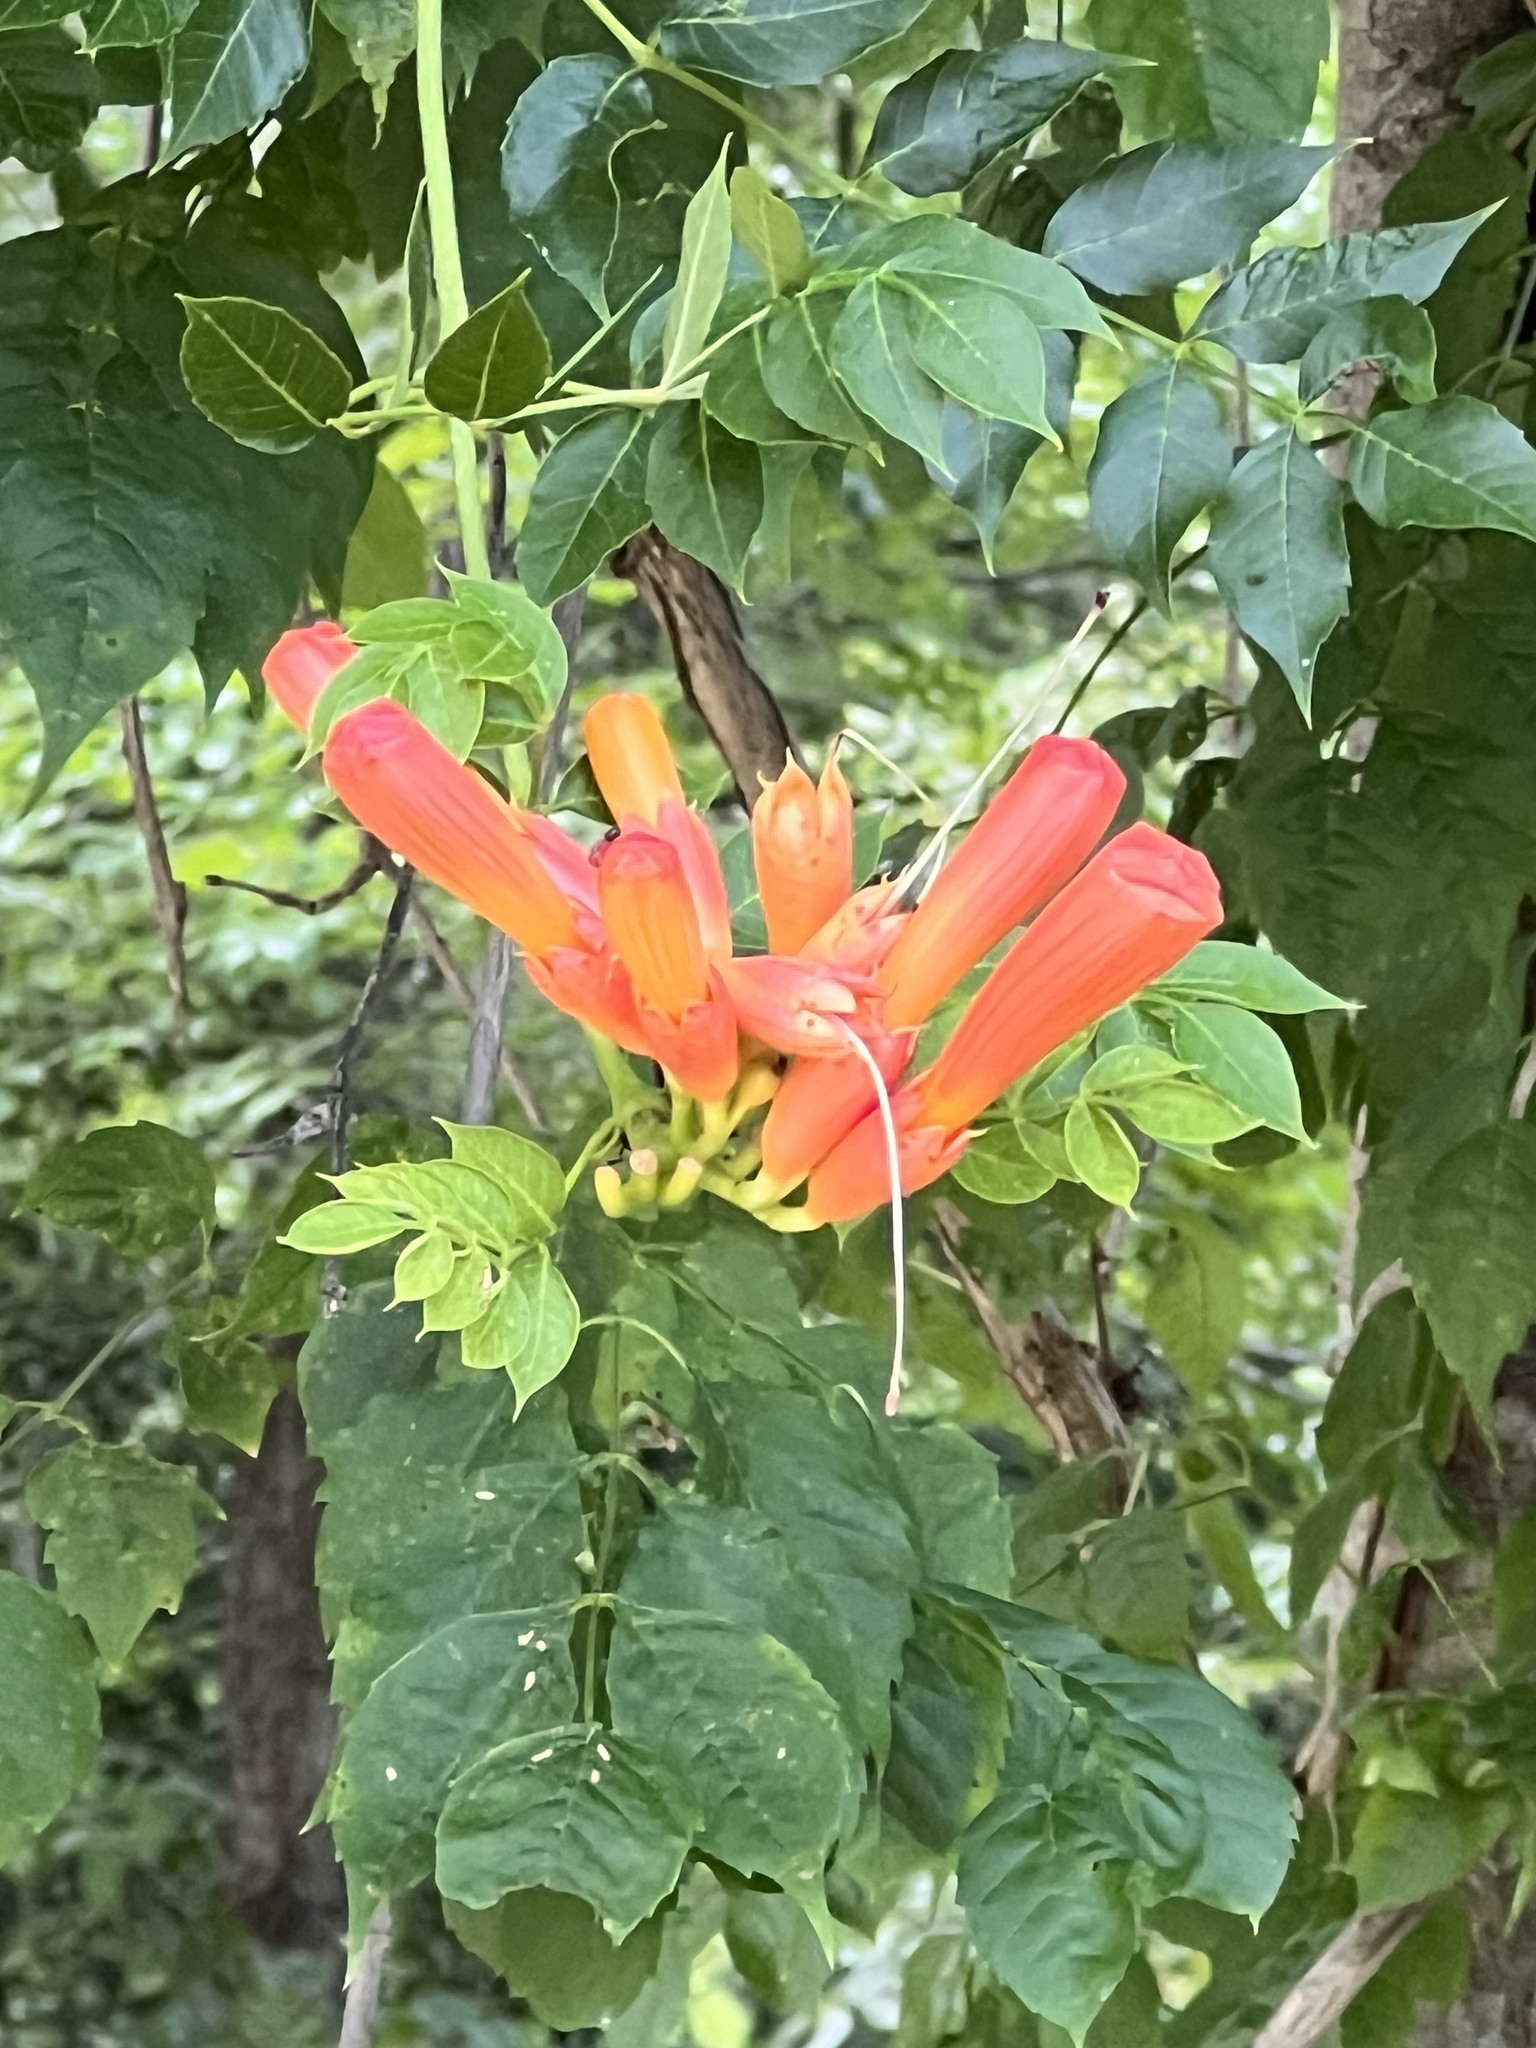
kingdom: Plantae
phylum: Tracheophyta
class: Magnoliopsida
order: Lamiales
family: Bignoniaceae
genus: Campsis
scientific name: Campsis radicans
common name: Trumpet-creeper
